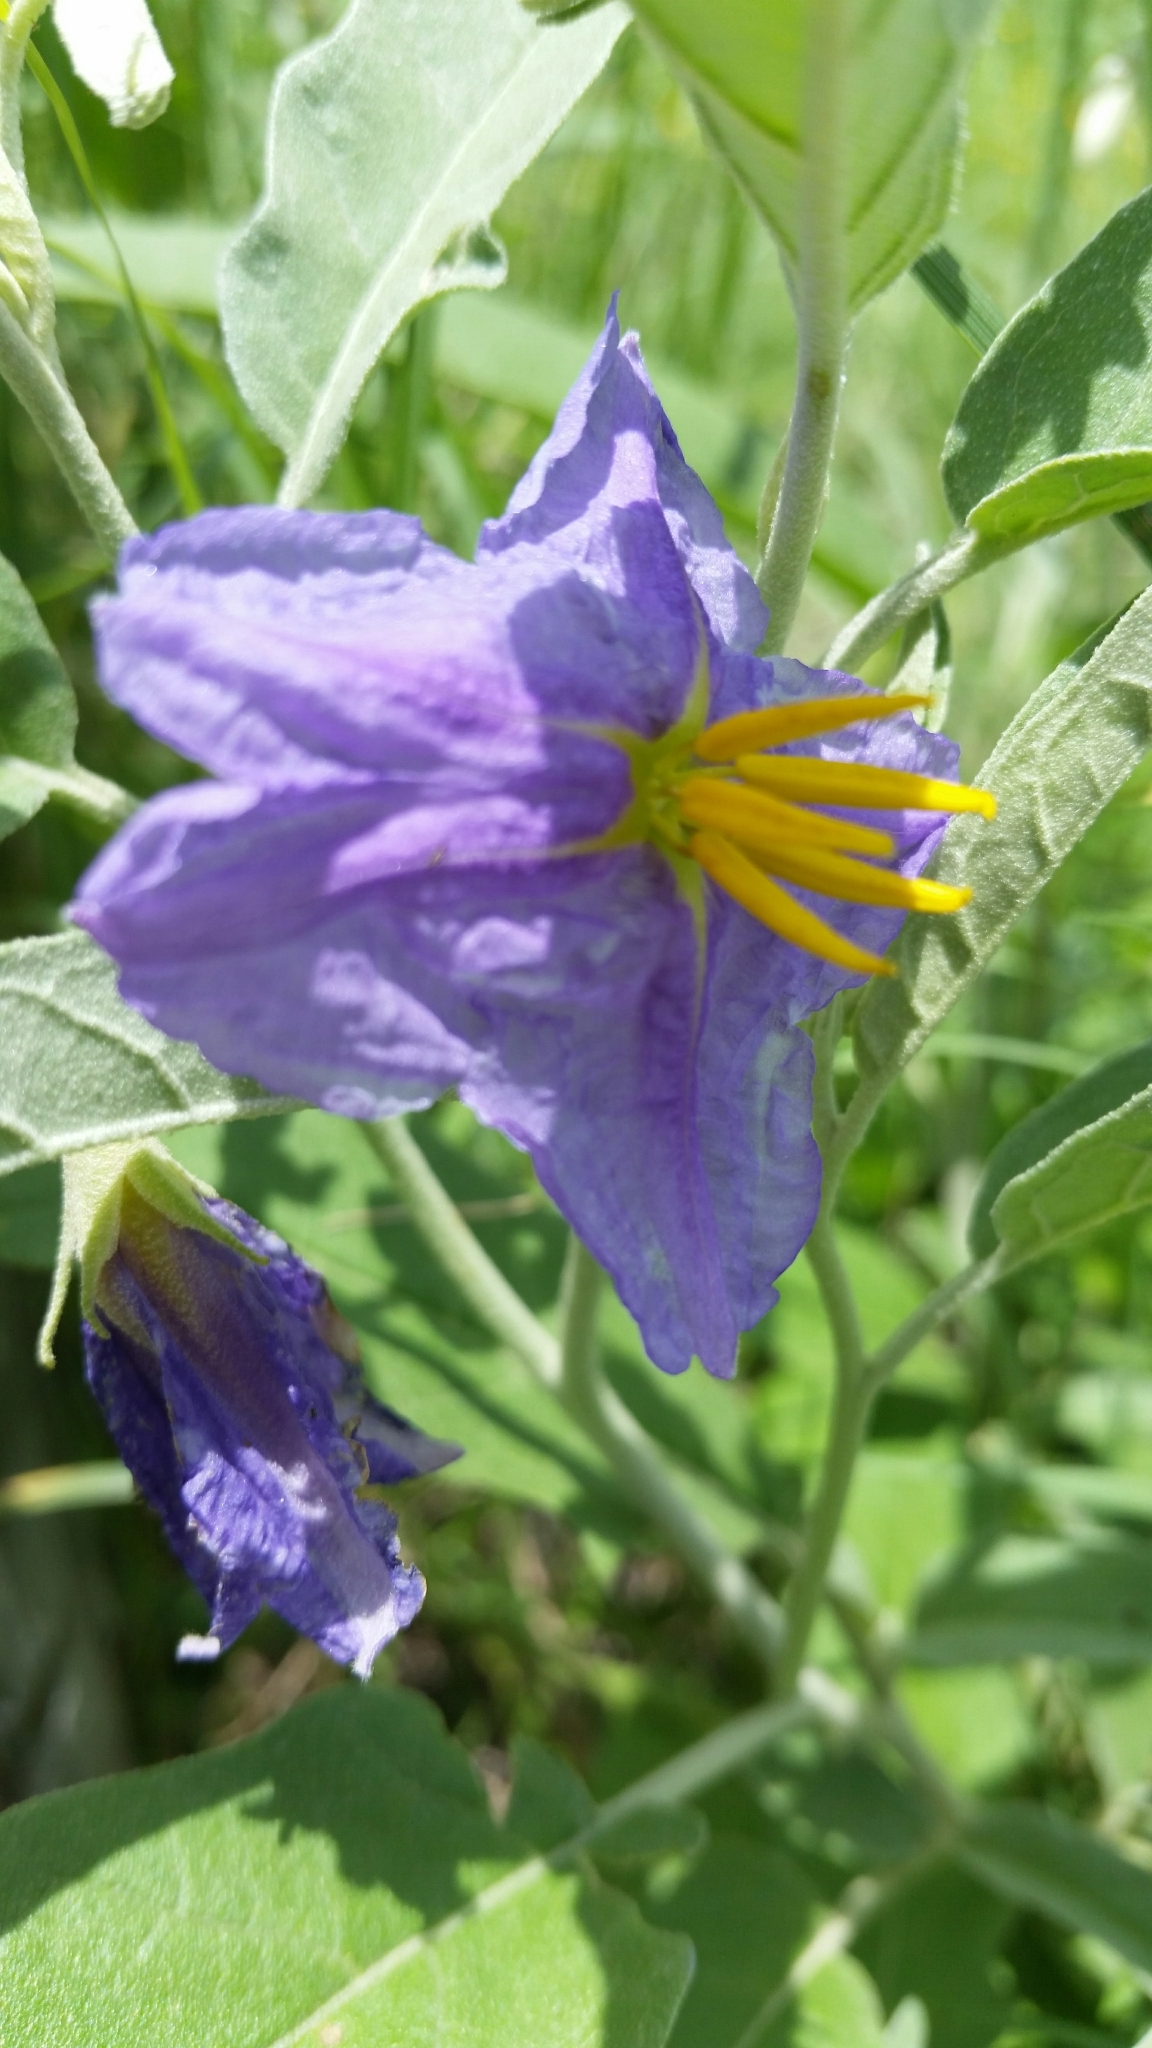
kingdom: Plantae
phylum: Tracheophyta
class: Magnoliopsida
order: Solanales
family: Solanaceae
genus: Solanum
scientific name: Solanum elaeagnifolium
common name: Silverleaf nightshade
